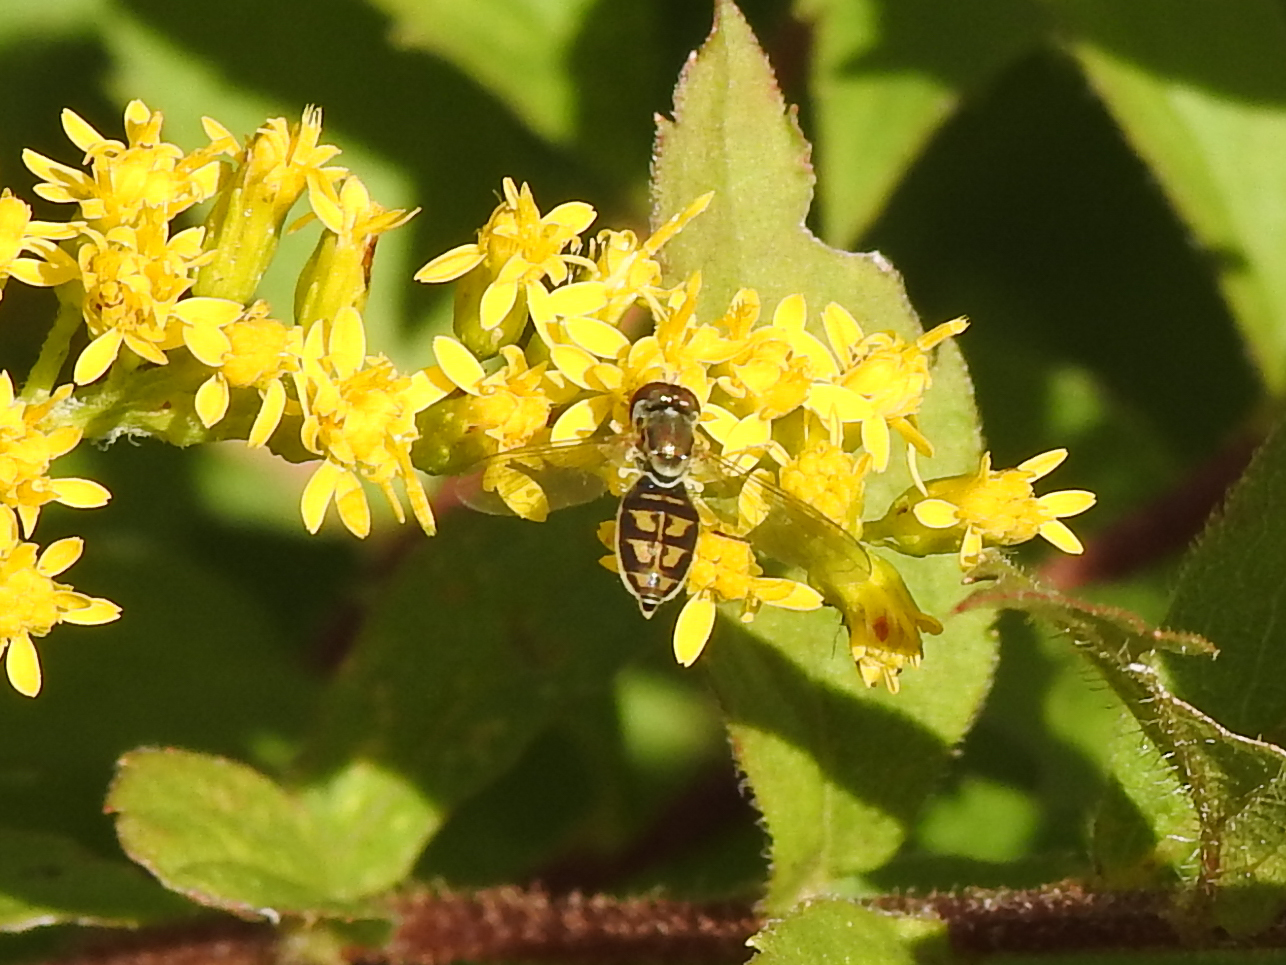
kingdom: Animalia
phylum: Arthropoda
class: Insecta
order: Diptera
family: Syrphidae
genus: Toxomerus
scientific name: Toxomerus marginatus
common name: Syrphid fly
